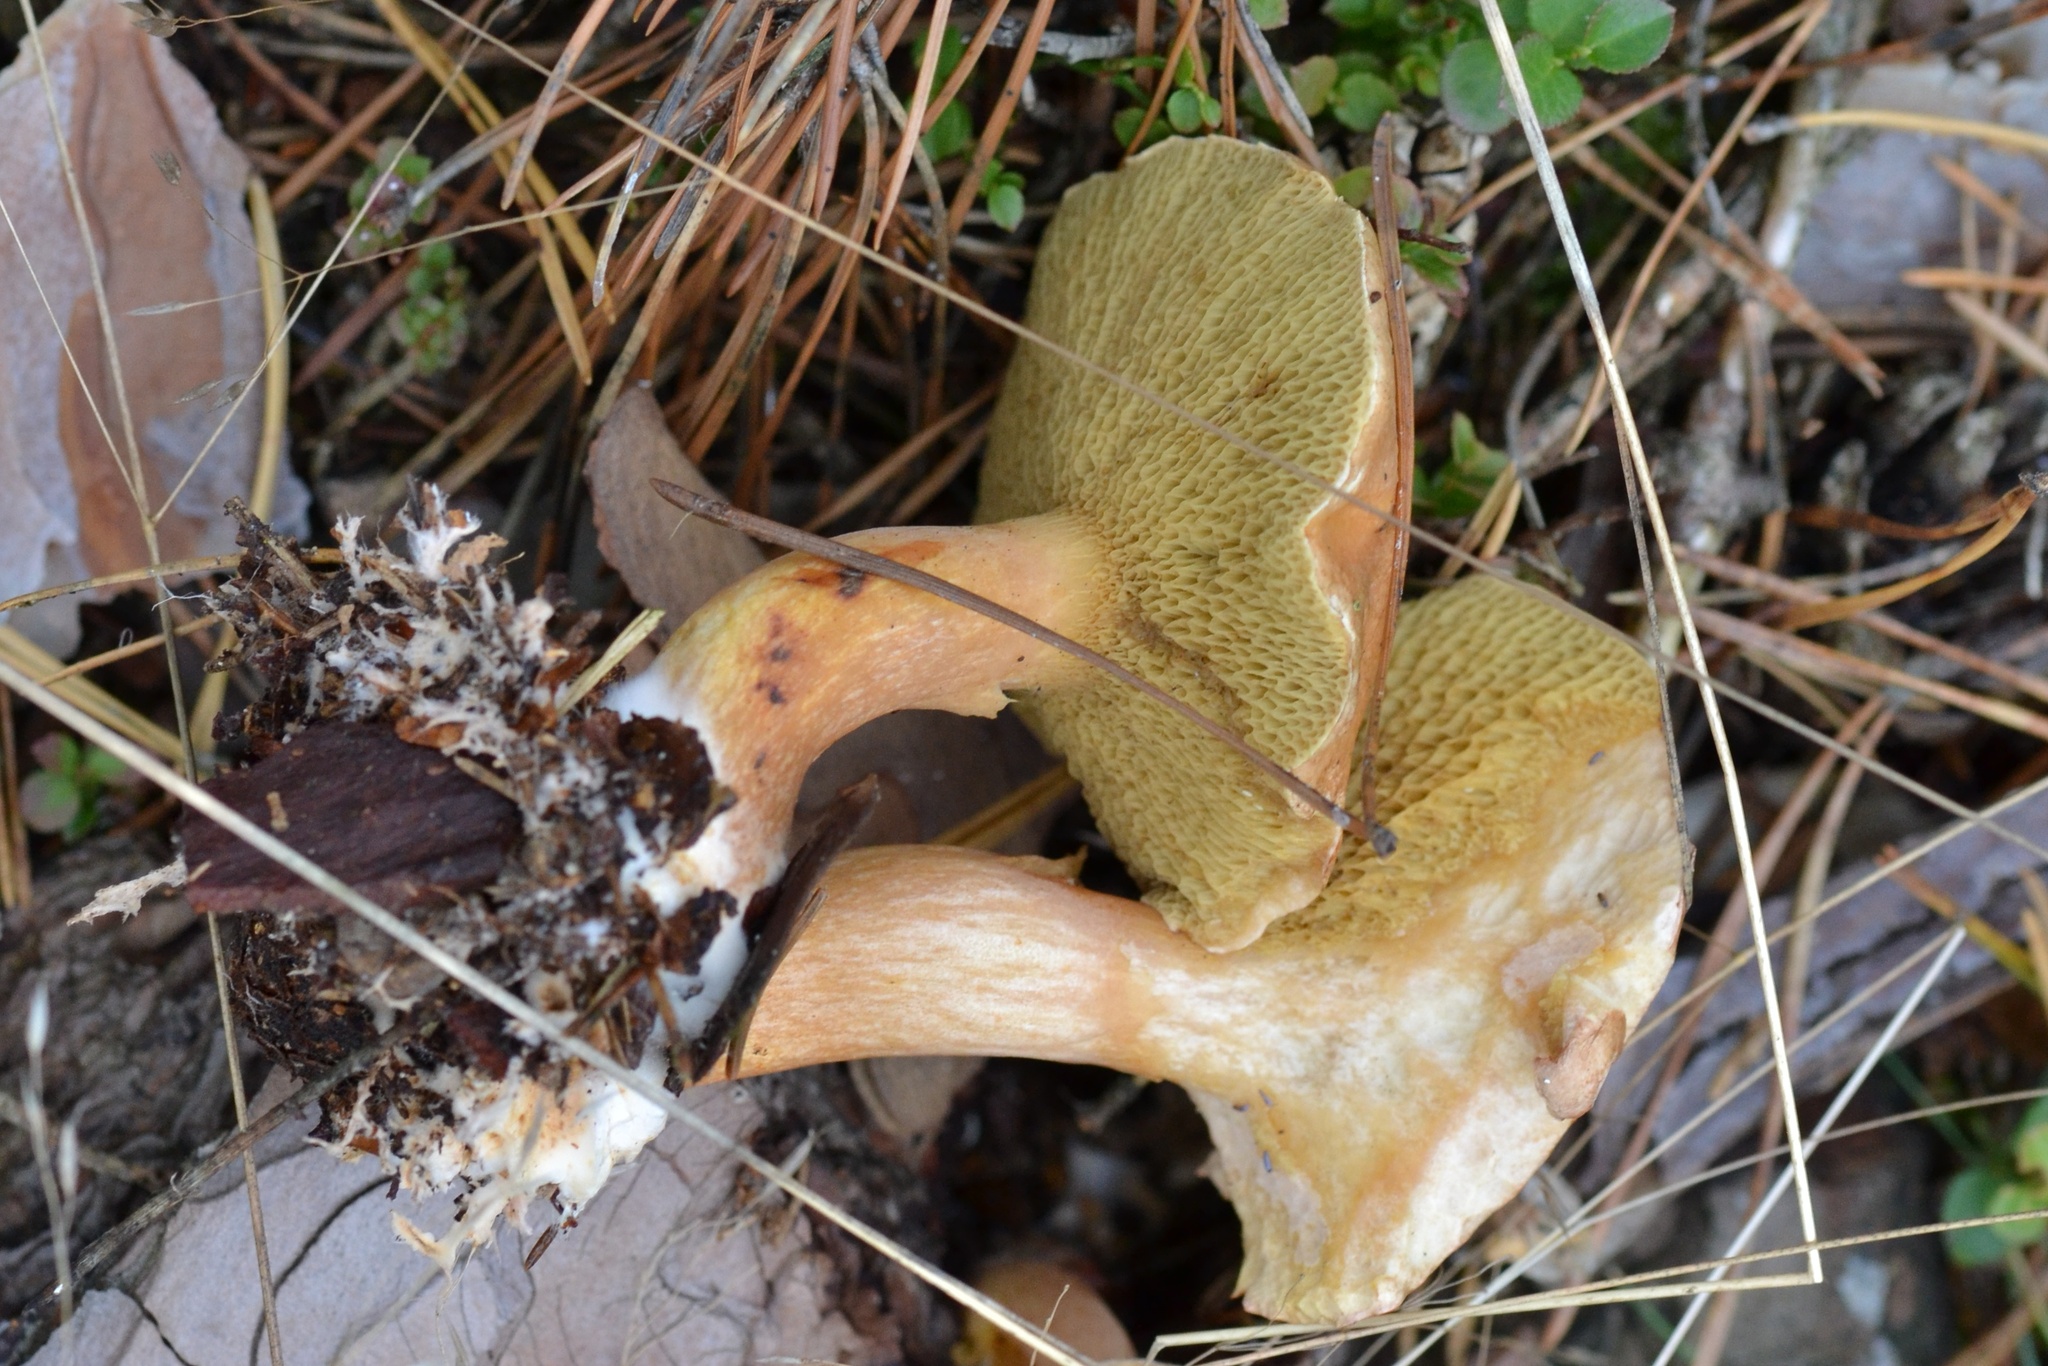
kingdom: Fungi
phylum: Basidiomycota
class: Agaricomycetes
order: Boletales
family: Suillaceae
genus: Suillus
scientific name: Suillus bovinus
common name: Bovine bolete
